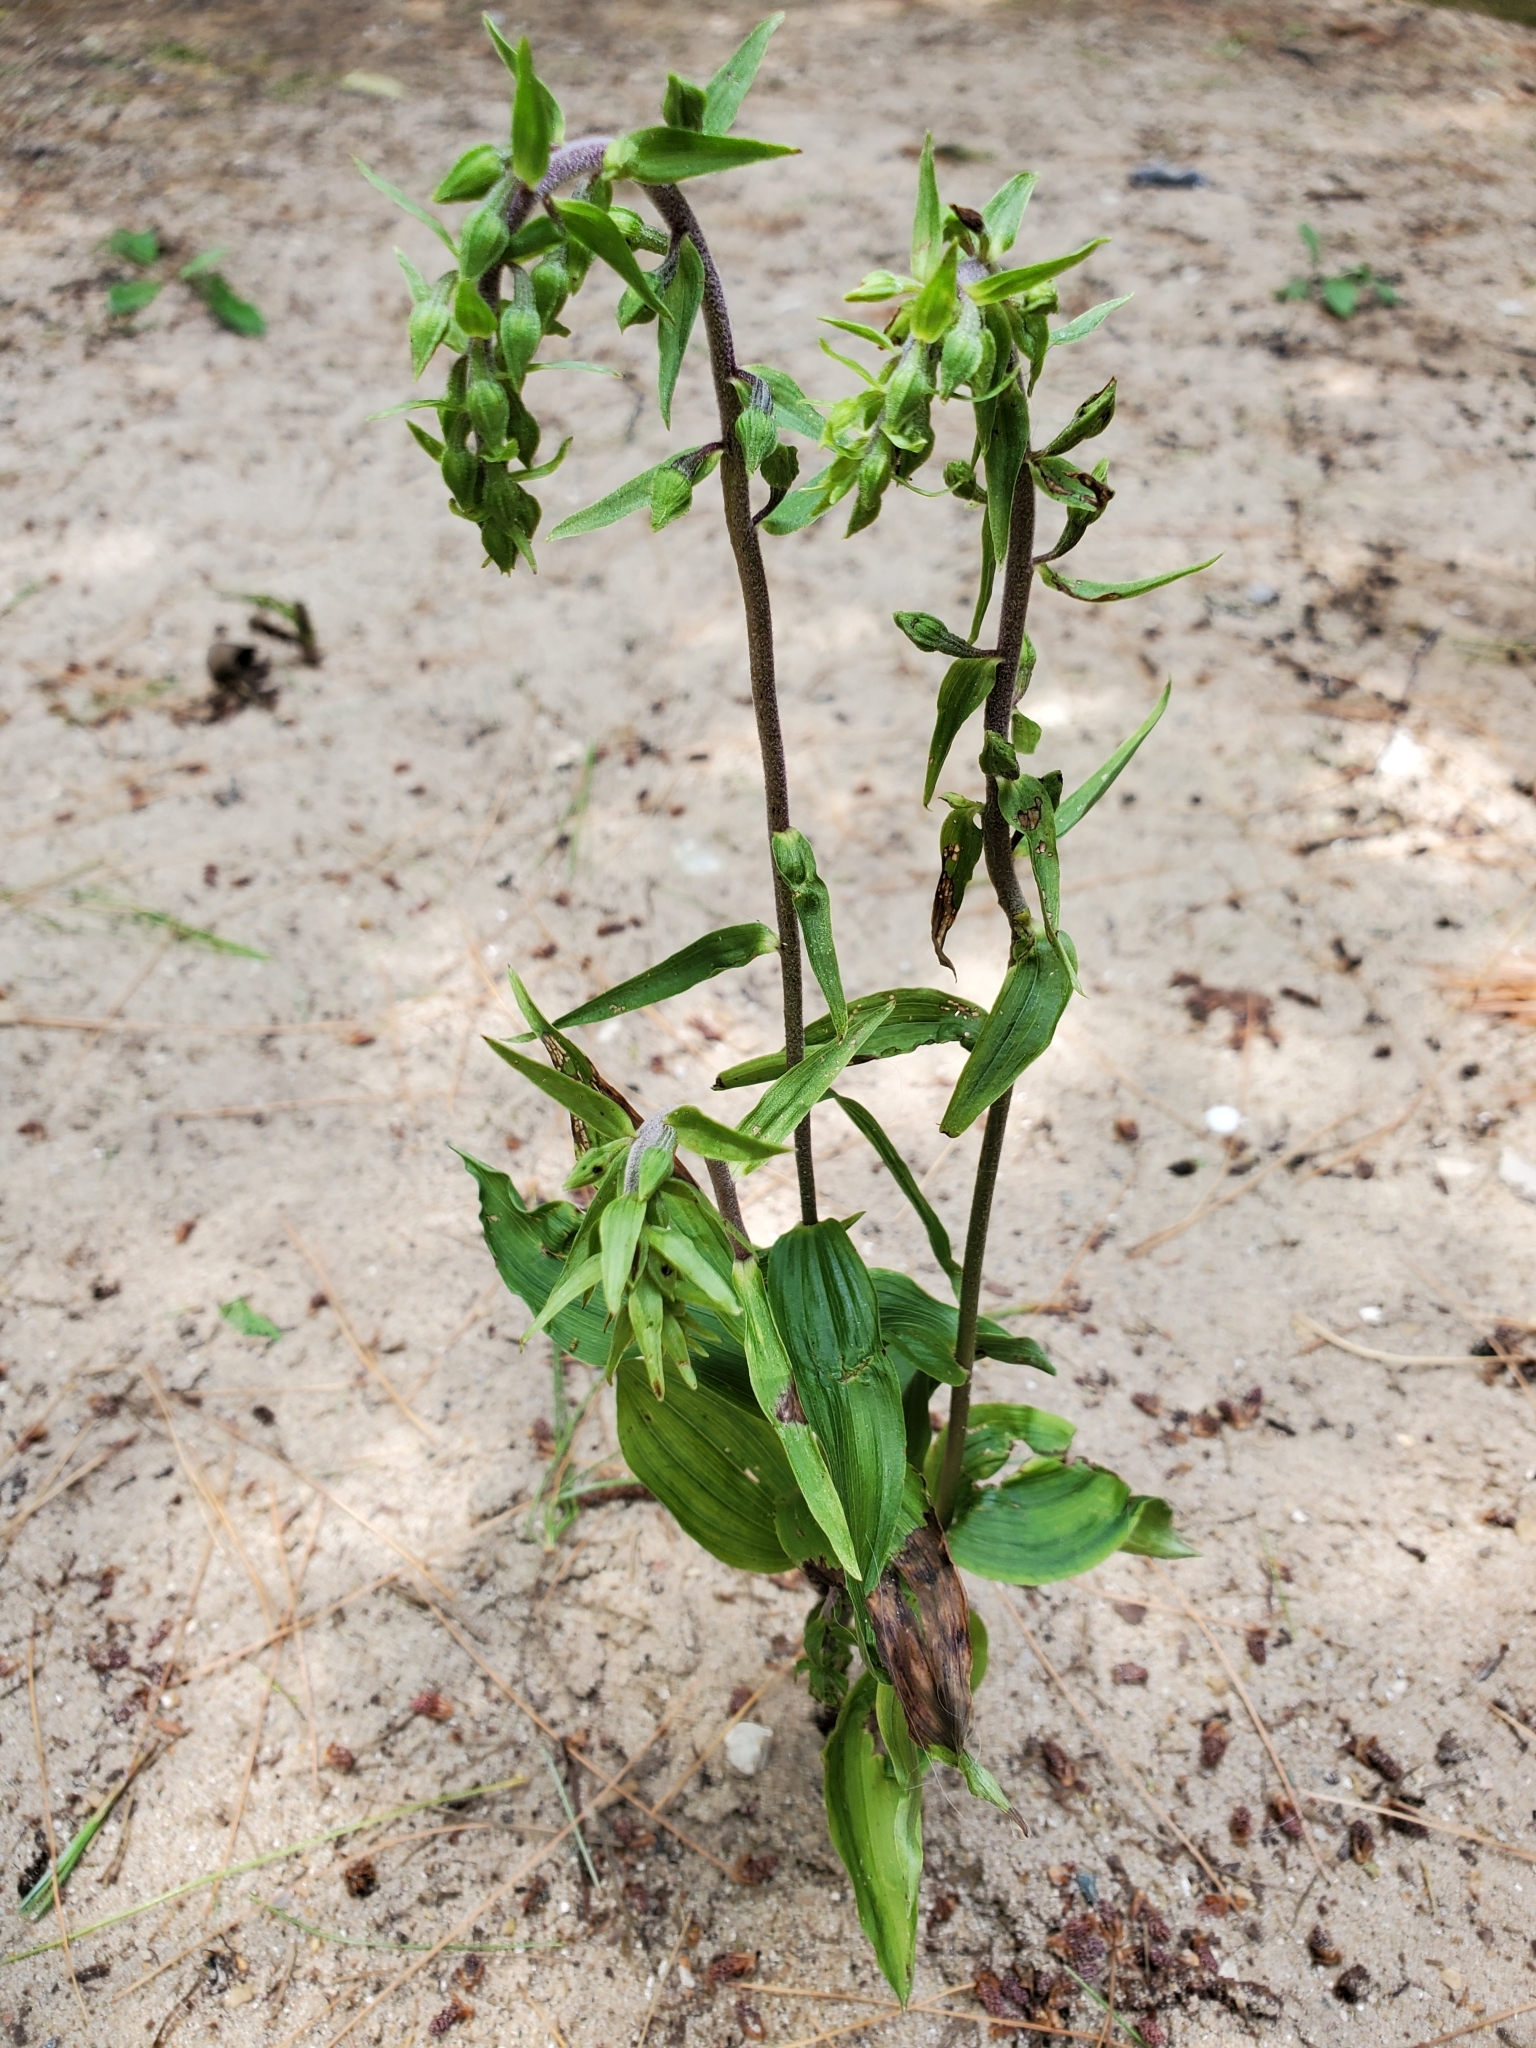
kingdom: Plantae
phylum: Tracheophyta
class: Liliopsida
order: Asparagales
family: Orchidaceae
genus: Epipactis
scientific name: Epipactis helleborine
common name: Broad-leaved helleborine
